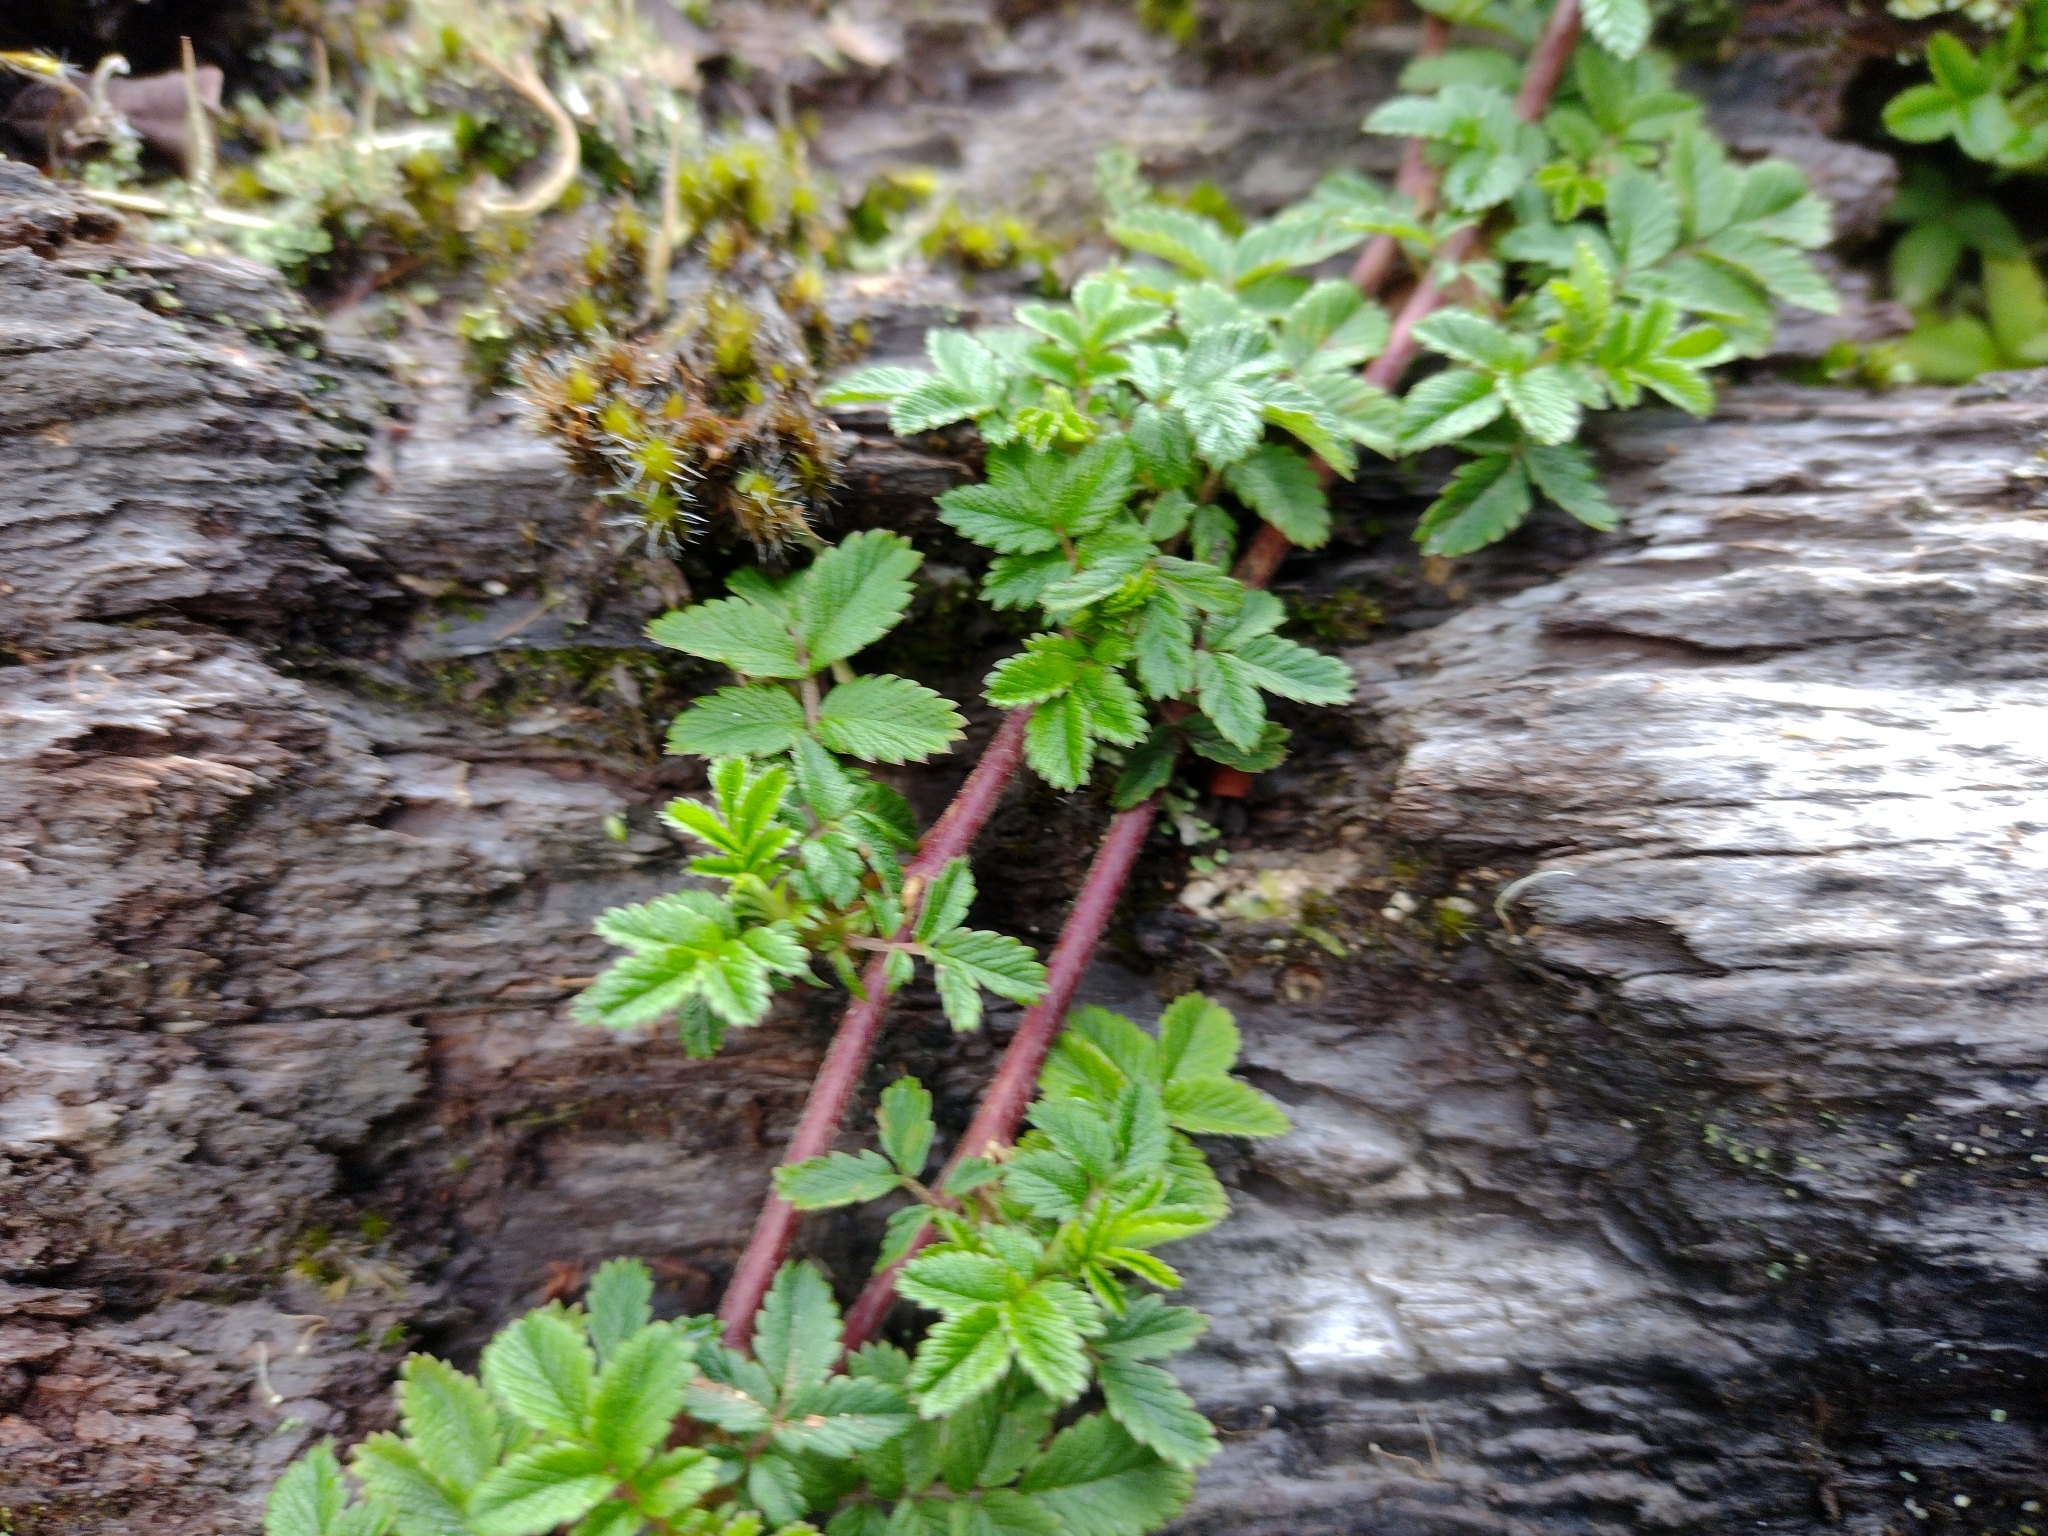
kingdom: Plantae
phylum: Tracheophyta
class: Magnoliopsida
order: Rosales
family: Rosaceae
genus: Acaena
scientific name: Acaena ovalifolia
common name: Two-spined acaena
